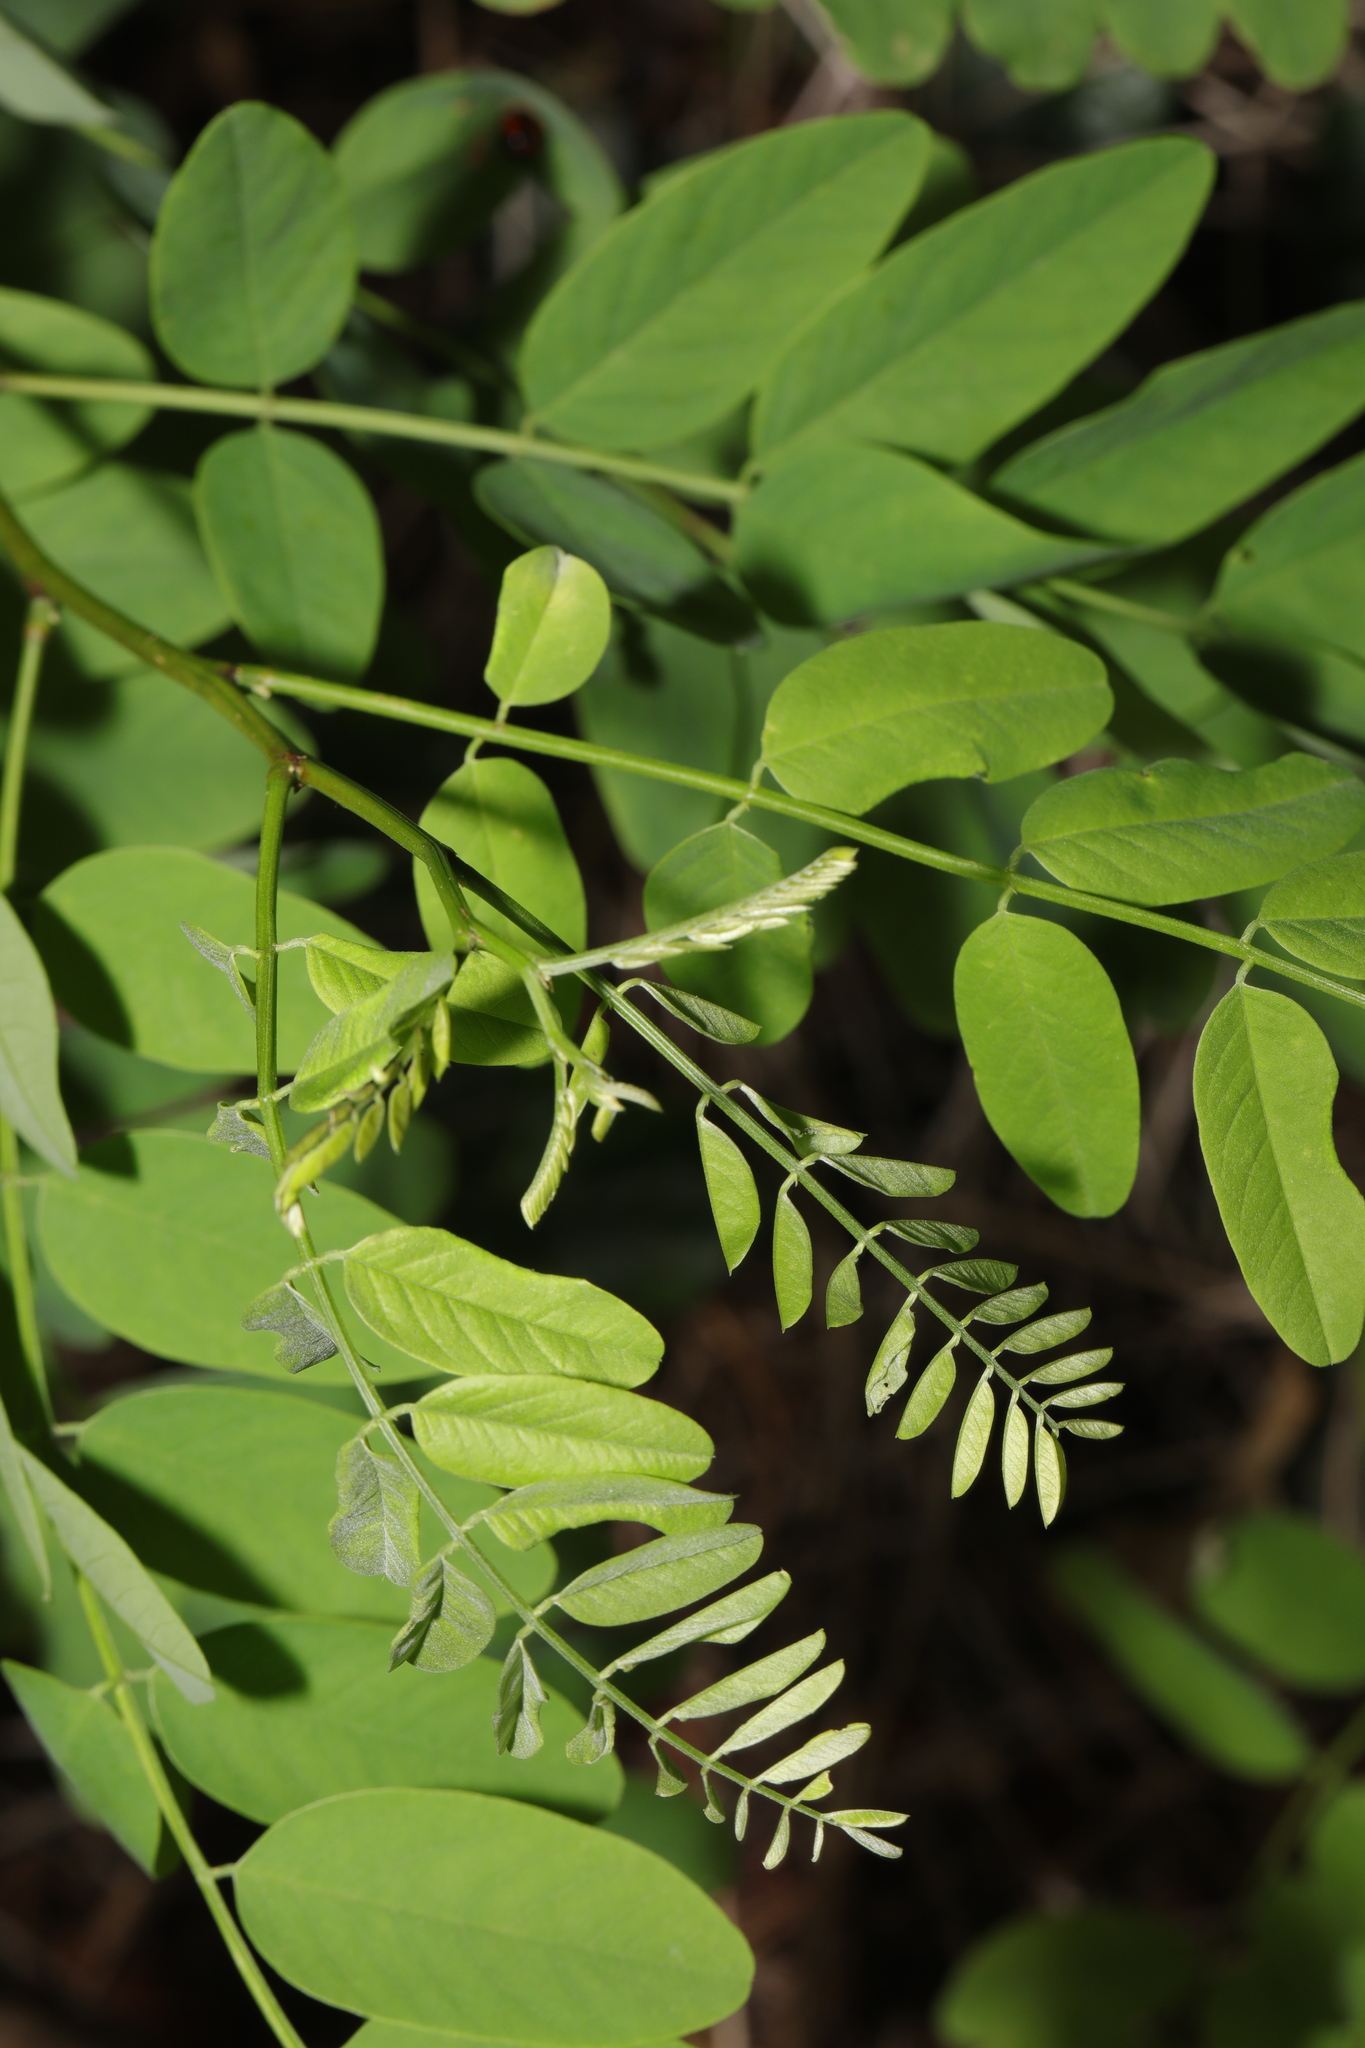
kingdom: Plantae
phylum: Tracheophyta
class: Magnoliopsida
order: Fabales
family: Fabaceae
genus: Robinia
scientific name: Robinia pseudoacacia
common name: Black locust
